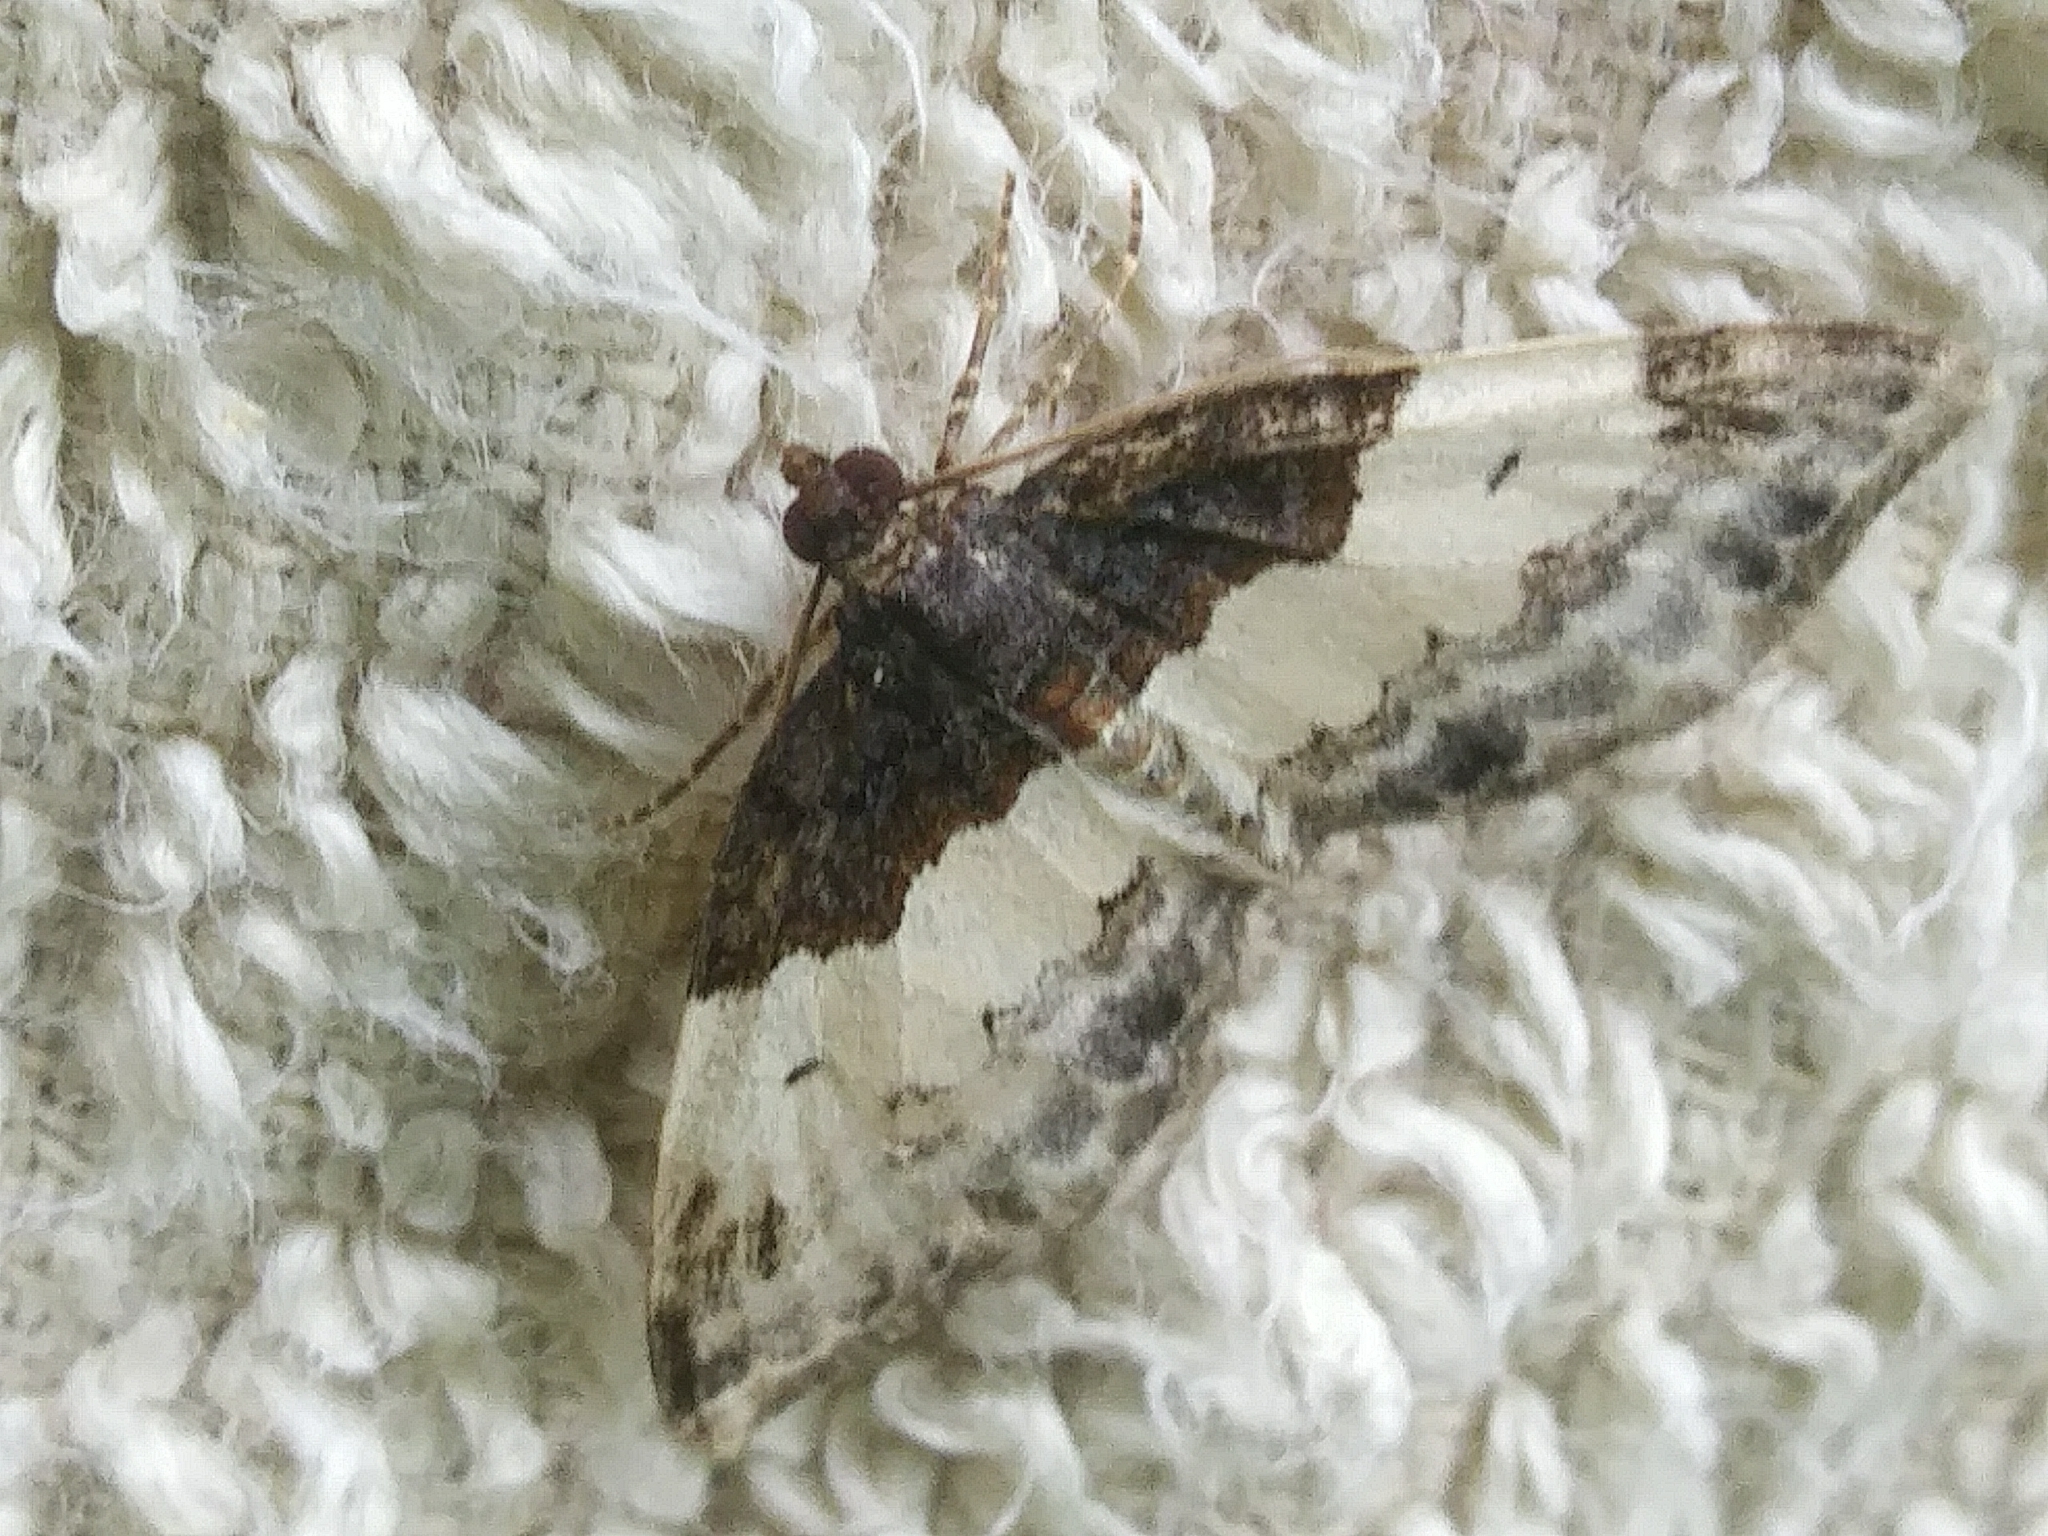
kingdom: Animalia
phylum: Arthropoda
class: Insecta
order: Lepidoptera
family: Geometridae
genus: Mesoleuca
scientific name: Mesoleuca ruficillata
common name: White-ribboned carpet moth
